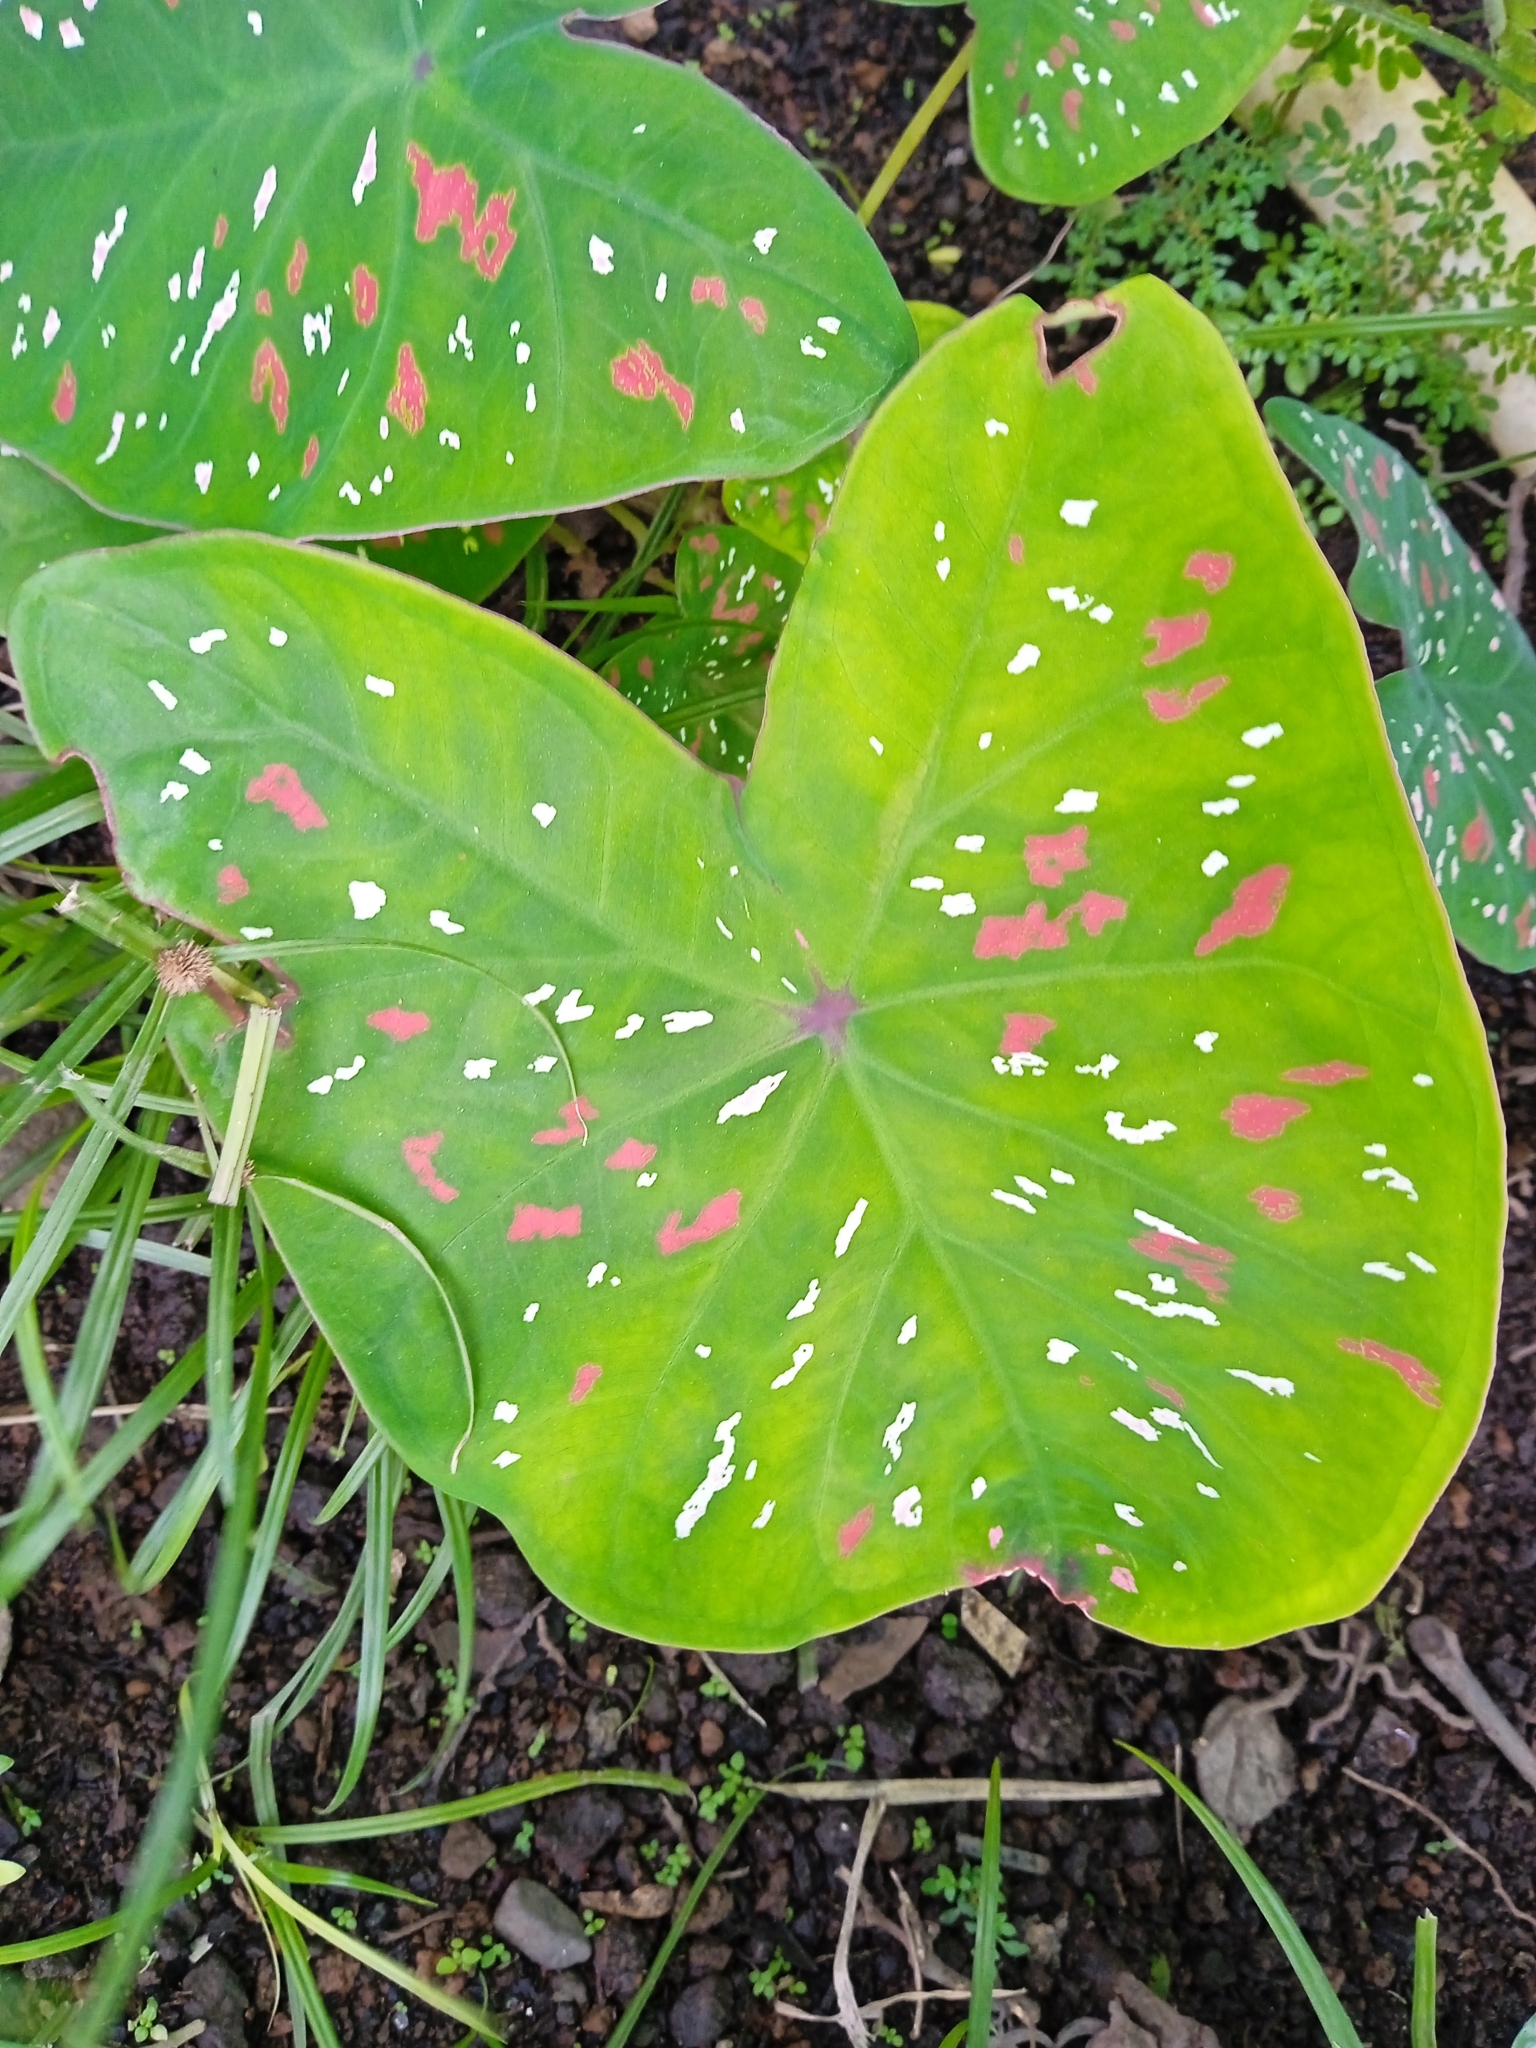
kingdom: Plantae
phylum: Tracheophyta
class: Liliopsida
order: Alismatales
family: Araceae
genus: Caladium
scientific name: Caladium bicolor
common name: Artist's pallet
